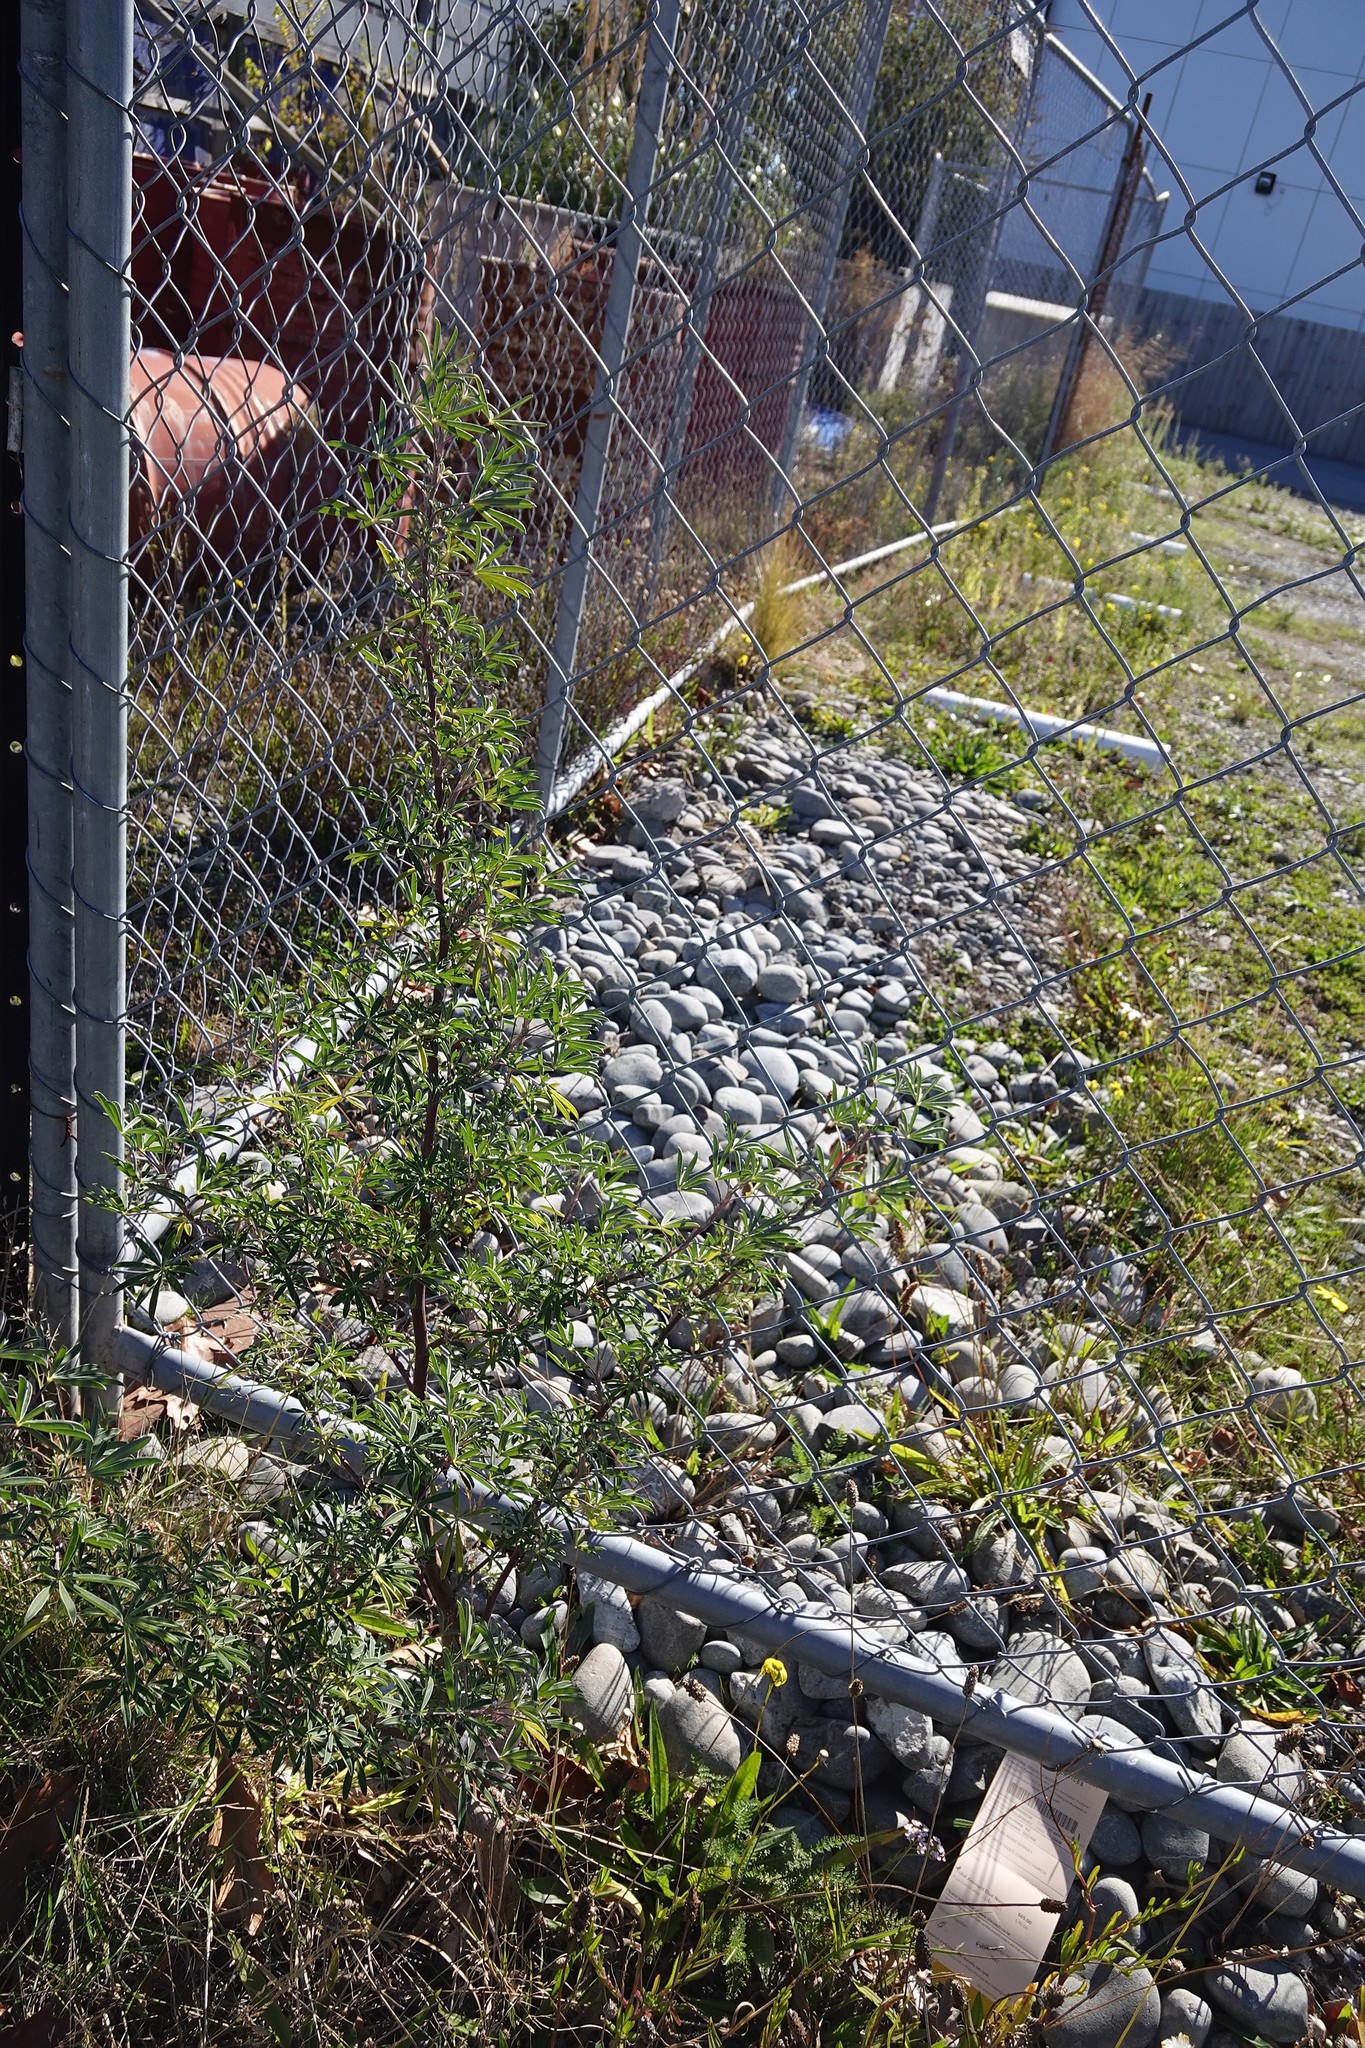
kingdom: Plantae
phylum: Tracheophyta
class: Magnoliopsida
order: Fabales
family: Fabaceae
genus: Lupinus
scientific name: Lupinus arboreus
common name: Yellow bush lupine
